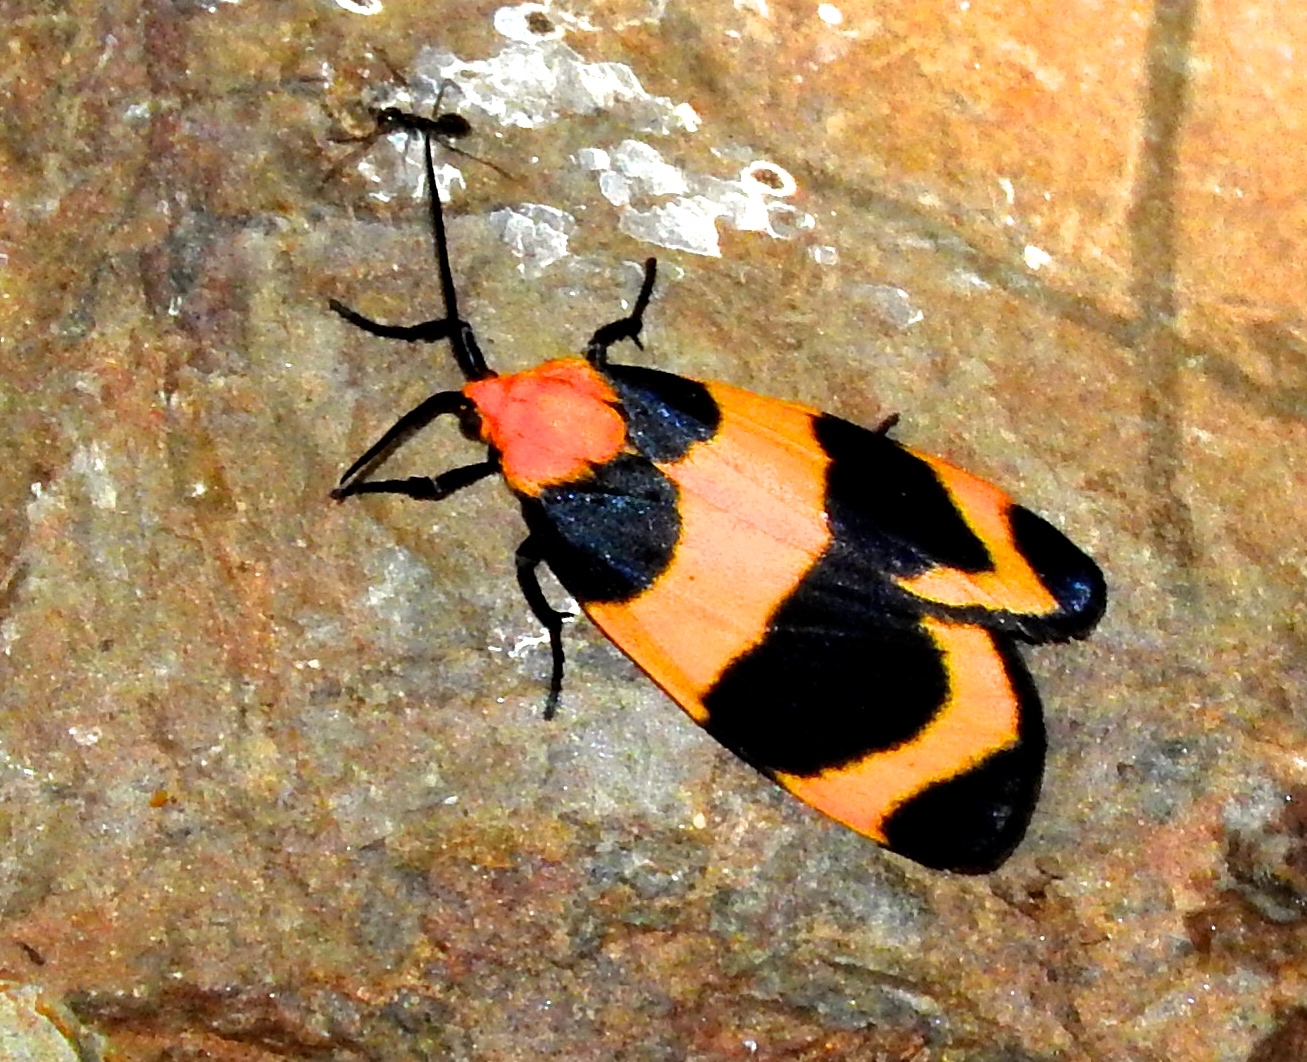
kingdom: Animalia
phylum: Arthropoda
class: Insecta
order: Lepidoptera
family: Erebidae
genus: Eudesmia
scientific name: Eudesmia menea
